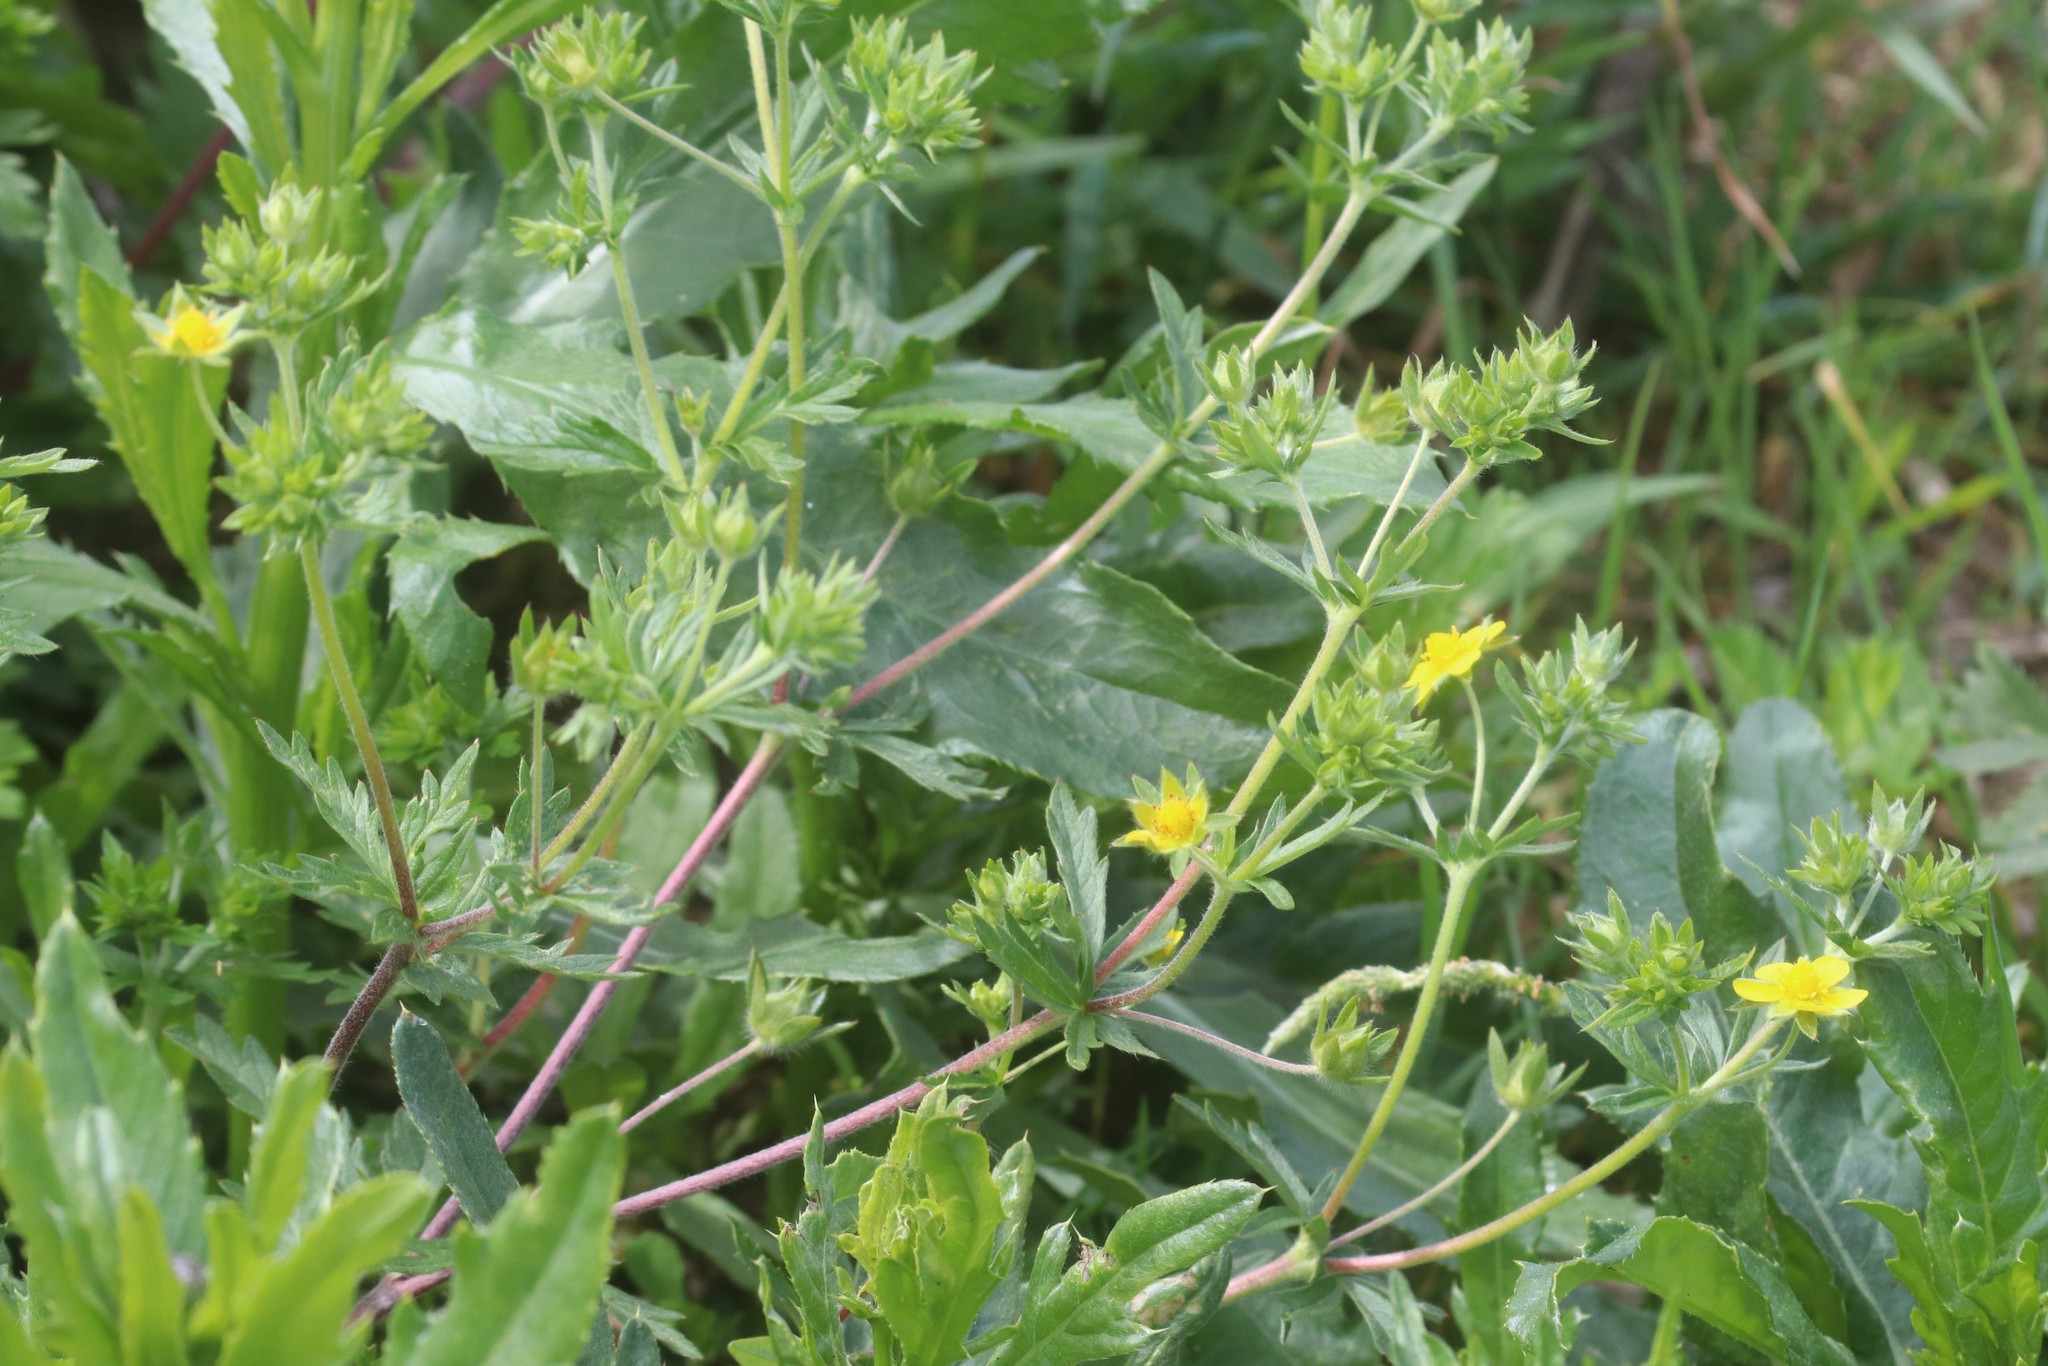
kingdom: Plantae
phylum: Tracheophyta
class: Magnoliopsida
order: Rosales
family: Rosaceae
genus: Potentilla
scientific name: Potentilla intermedia
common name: Downy cinquefoil
